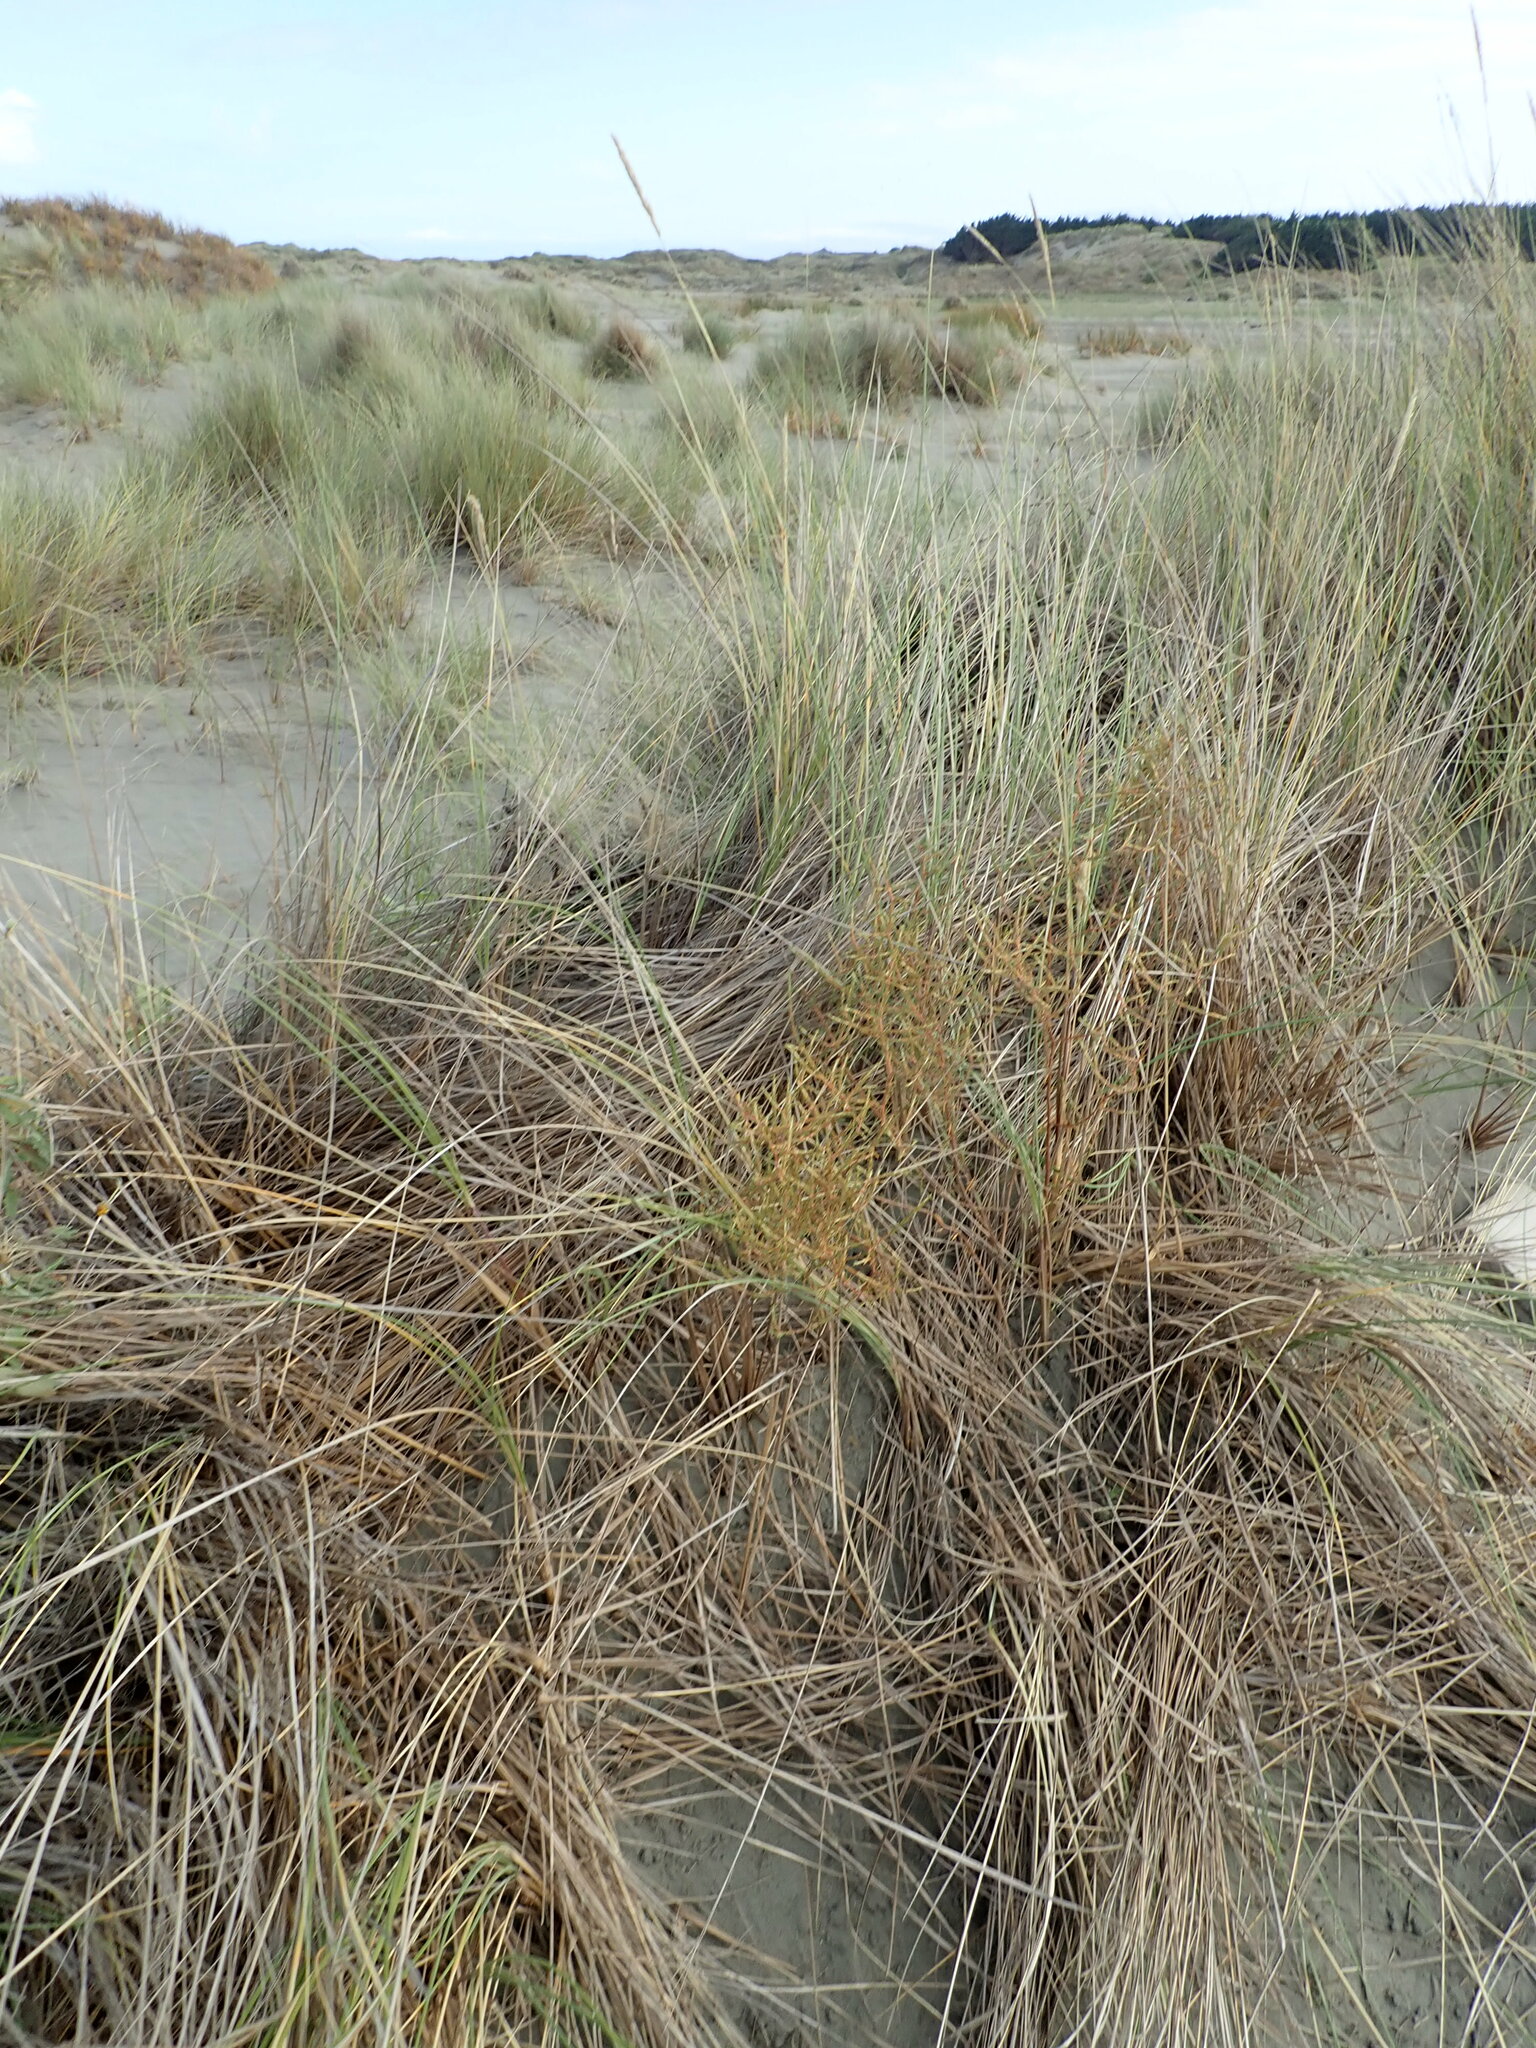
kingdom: Plantae
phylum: Tracheophyta
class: Magnoliopsida
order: Gentianales
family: Rubiaceae
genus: Coprosma
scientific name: Coprosma acerosa
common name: Sand coprosma
